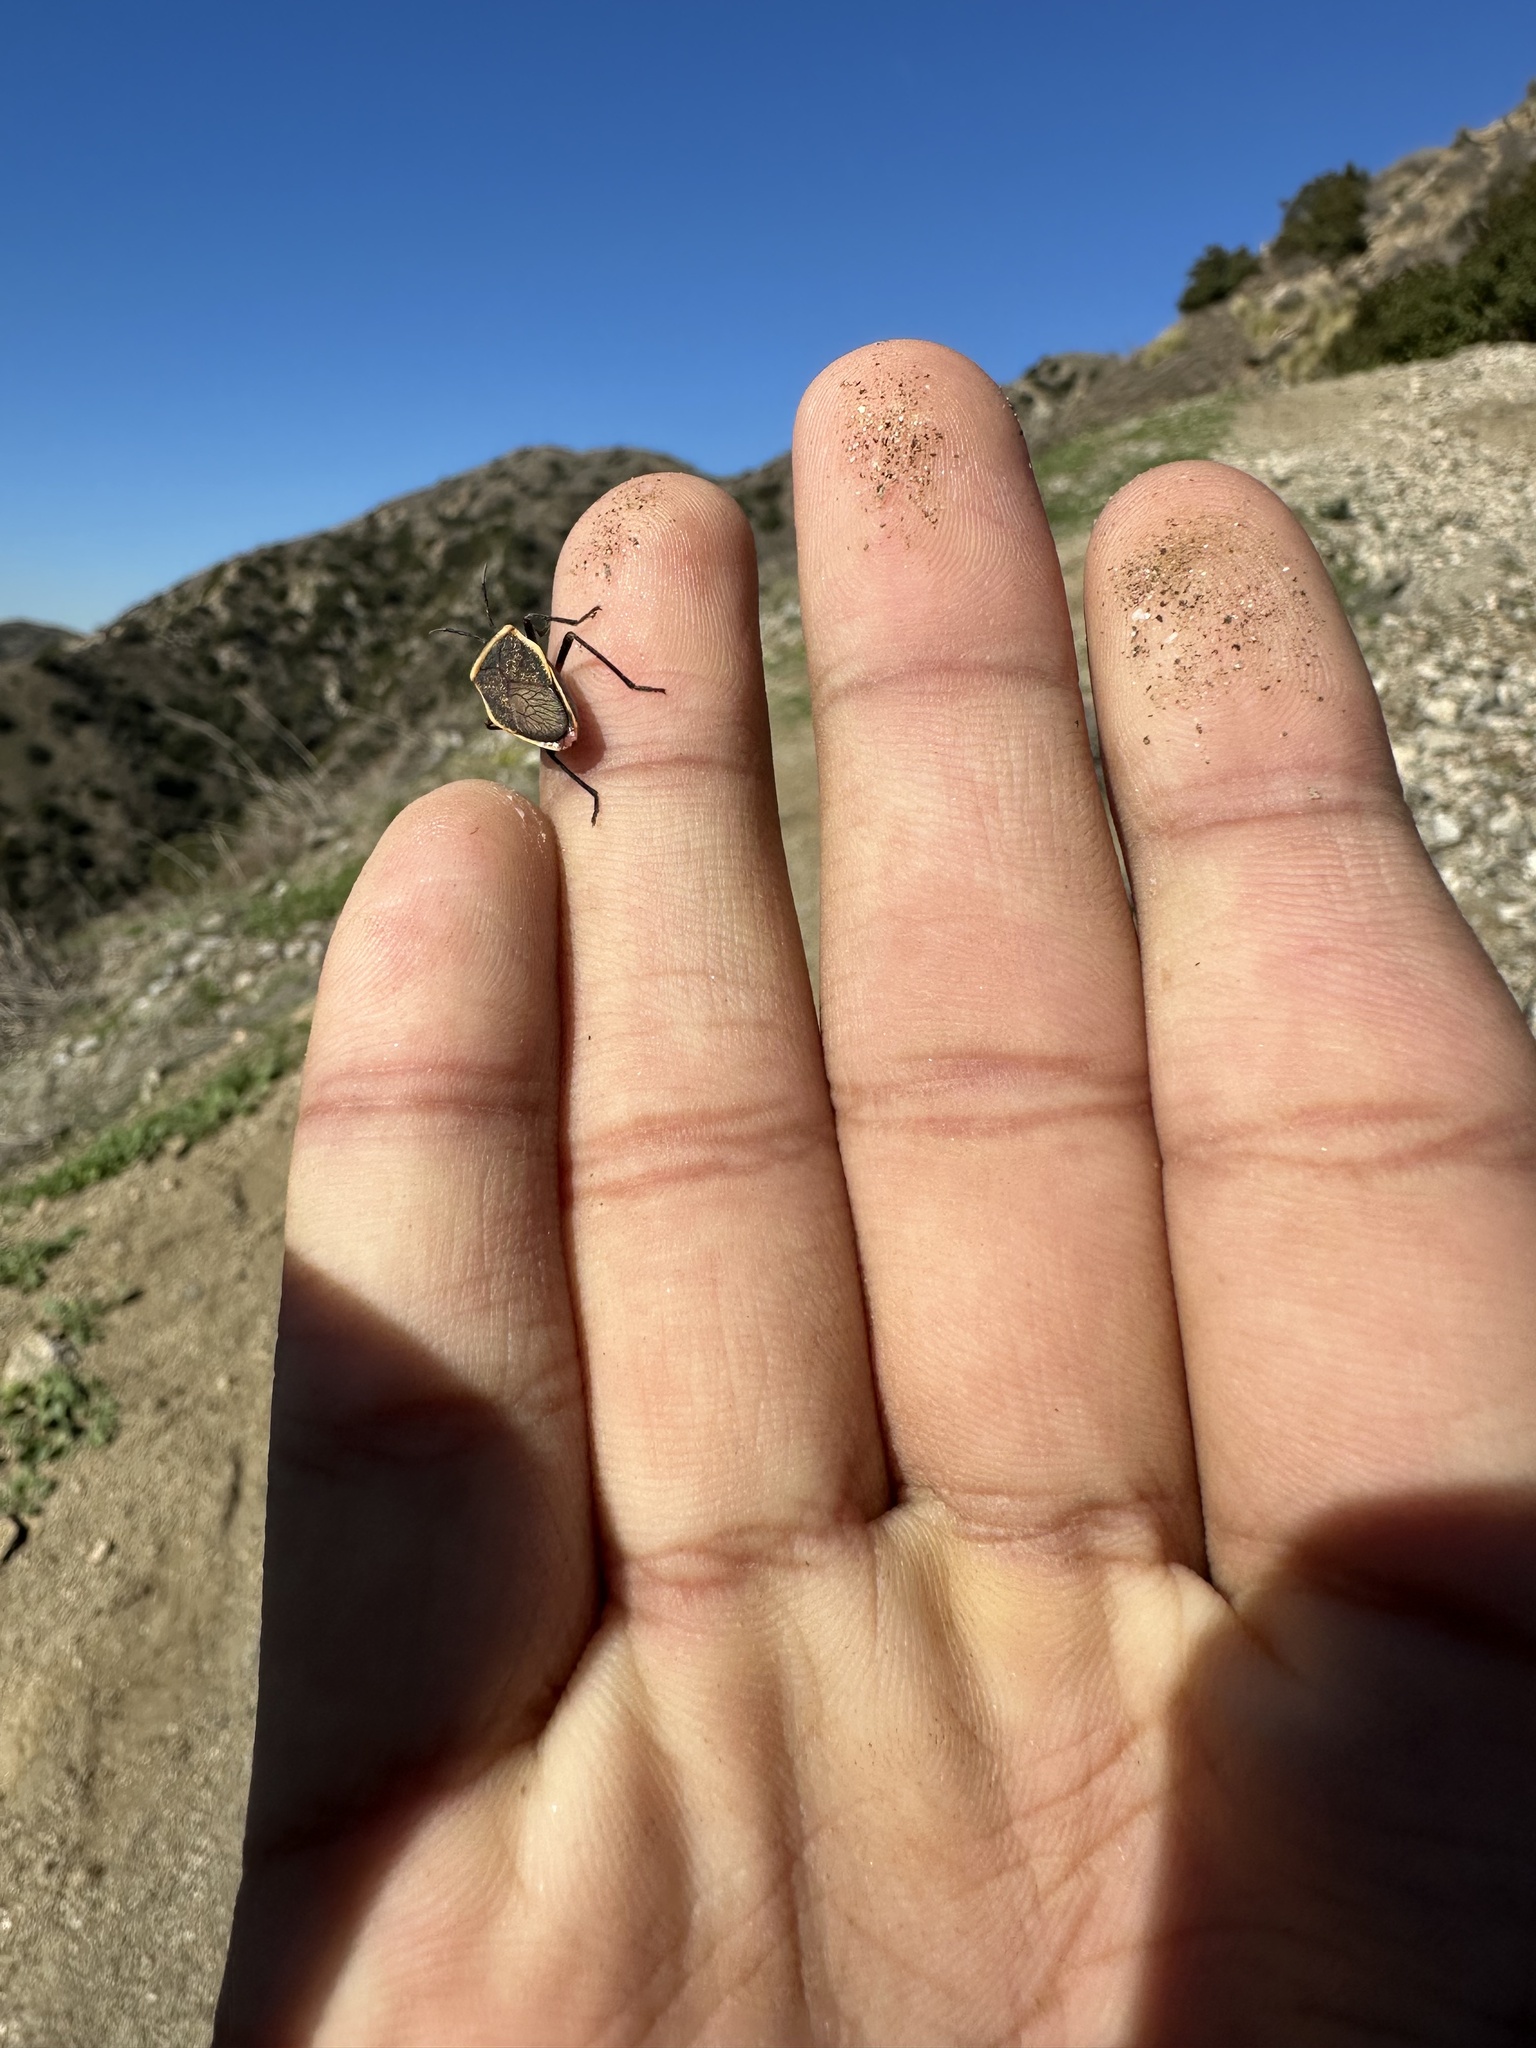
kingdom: Animalia
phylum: Arthropoda
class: Insecta
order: Hemiptera
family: Largidae
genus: Largus
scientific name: Largus californicus
